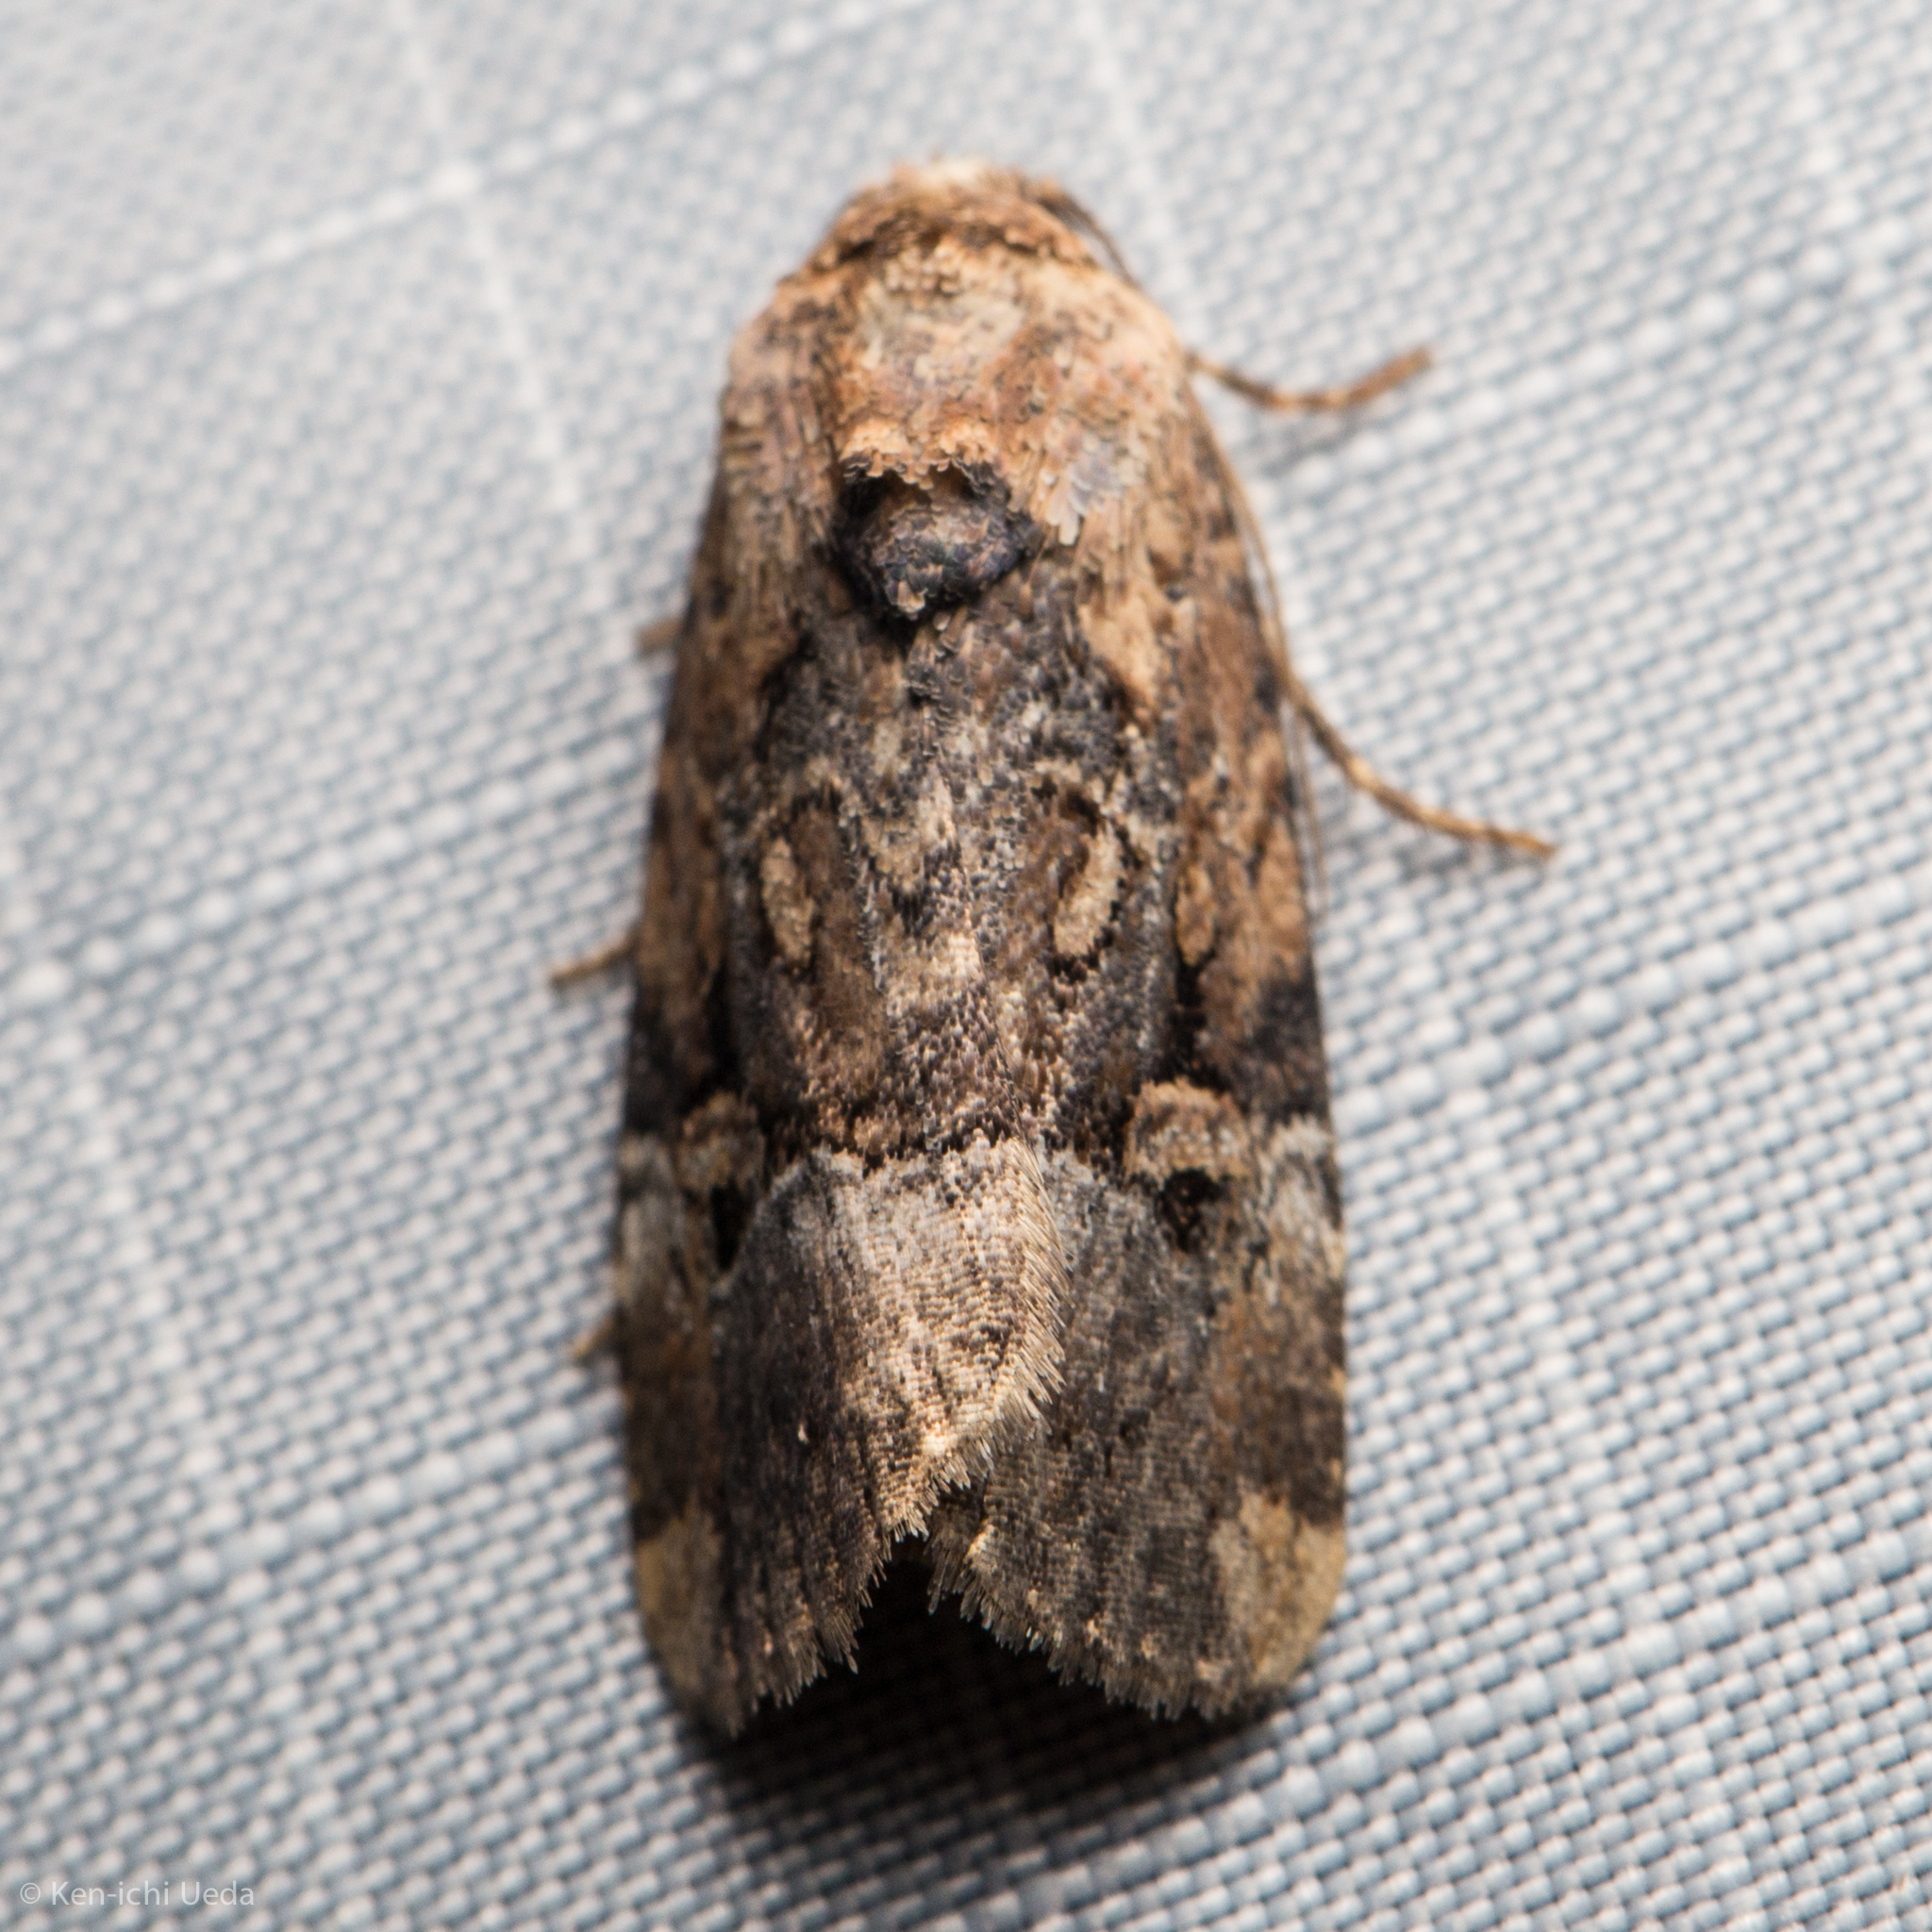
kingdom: Animalia
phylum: Arthropoda
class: Insecta
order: Lepidoptera
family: Noctuidae
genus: Elaphria
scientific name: Elaphria chalcedonia
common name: Chalcedony midget
